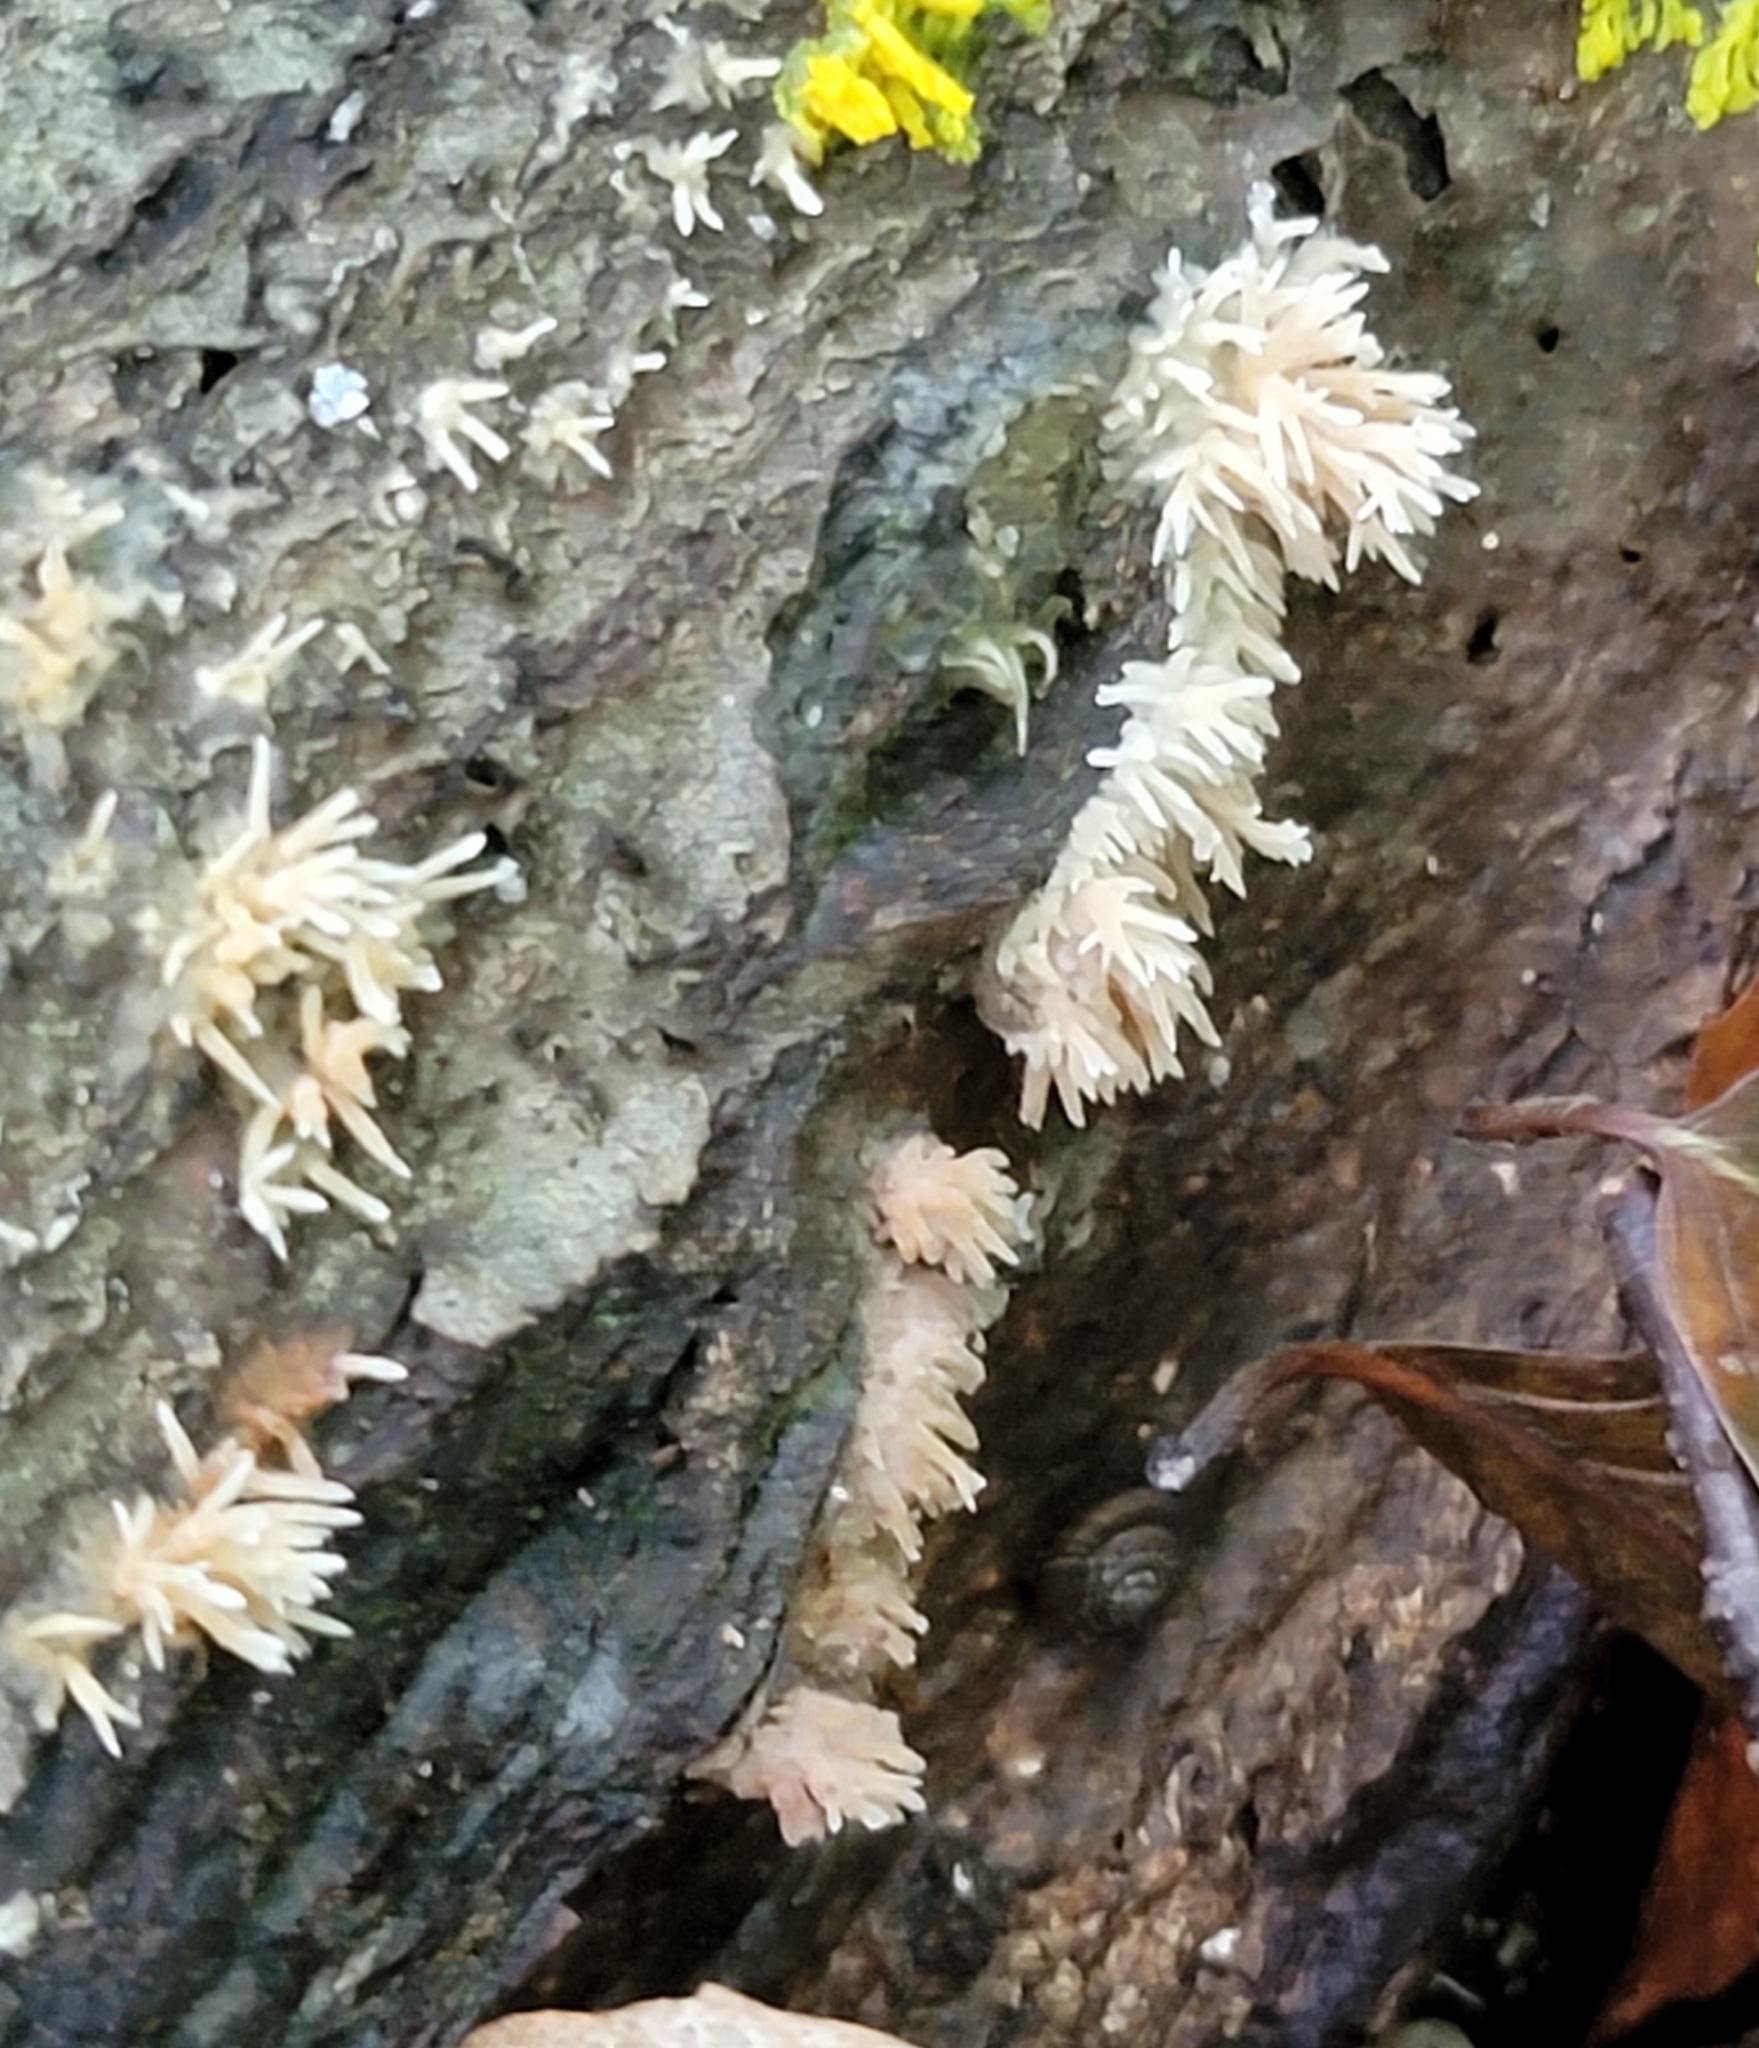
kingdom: Fungi
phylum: Basidiomycota
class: Agaricomycetes
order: Agaricales
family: Radulomycetaceae
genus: Radulomyces
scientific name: Radulomyces copelandii
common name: Asian beauty
